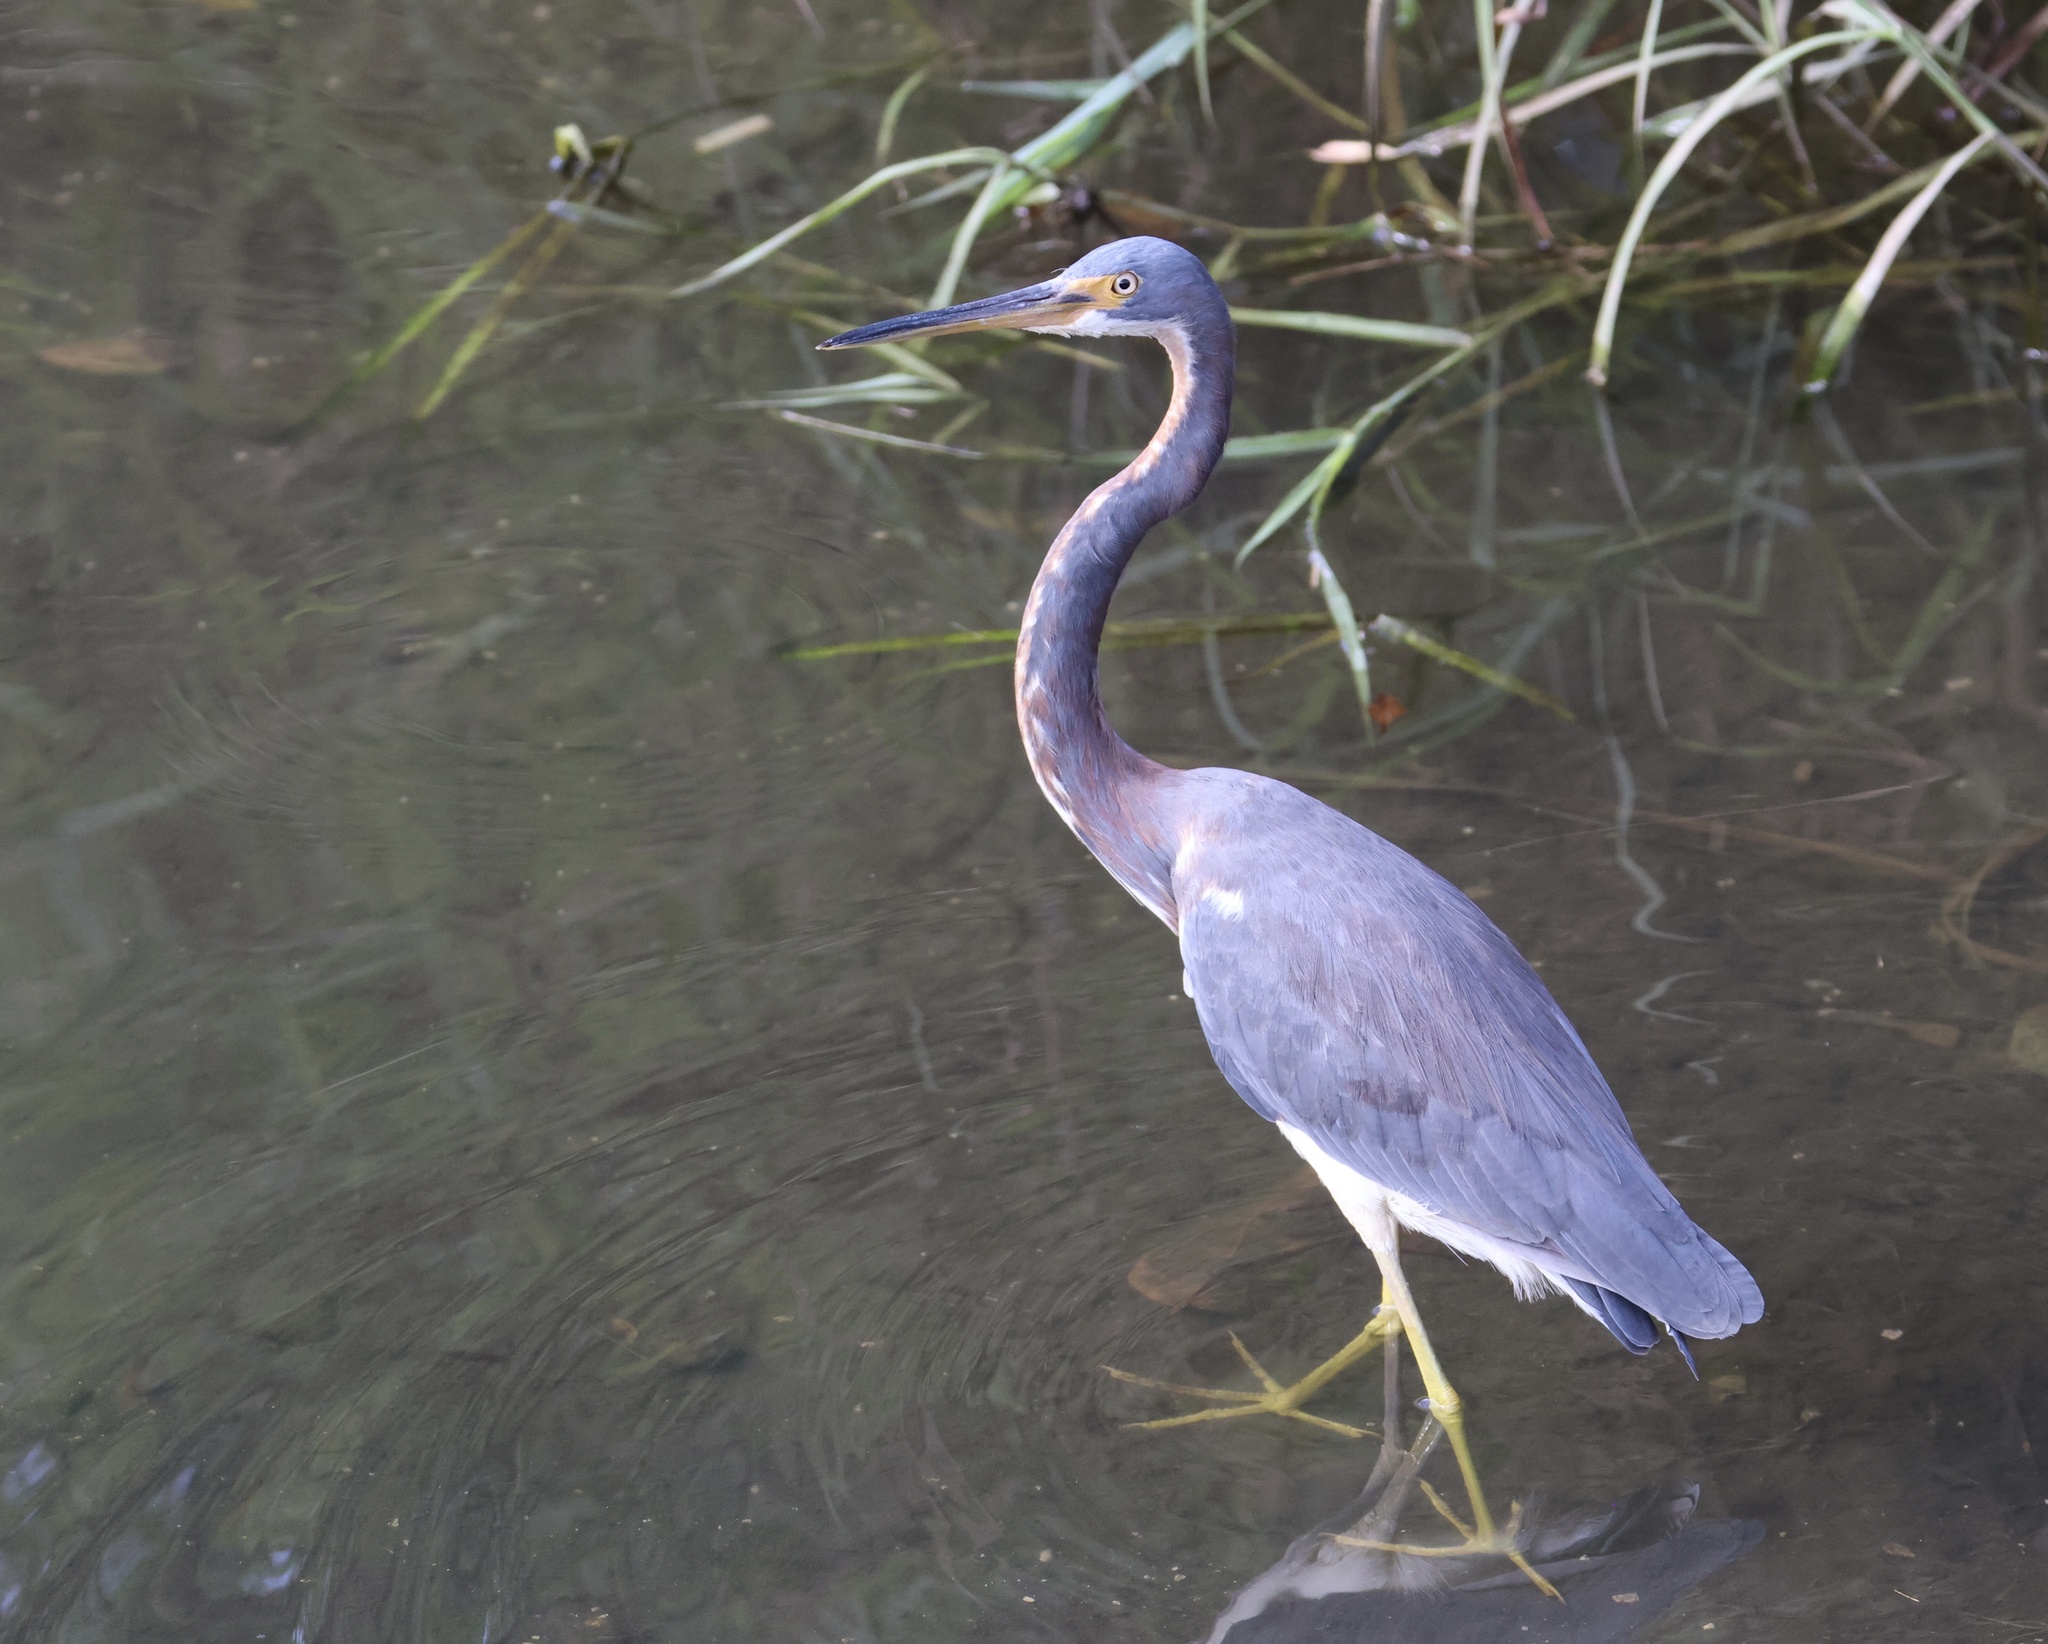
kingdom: Animalia
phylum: Chordata
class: Aves
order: Pelecaniformes
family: Ardeidae
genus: Egretta
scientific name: Egretta tricolor
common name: Tricolored heron
